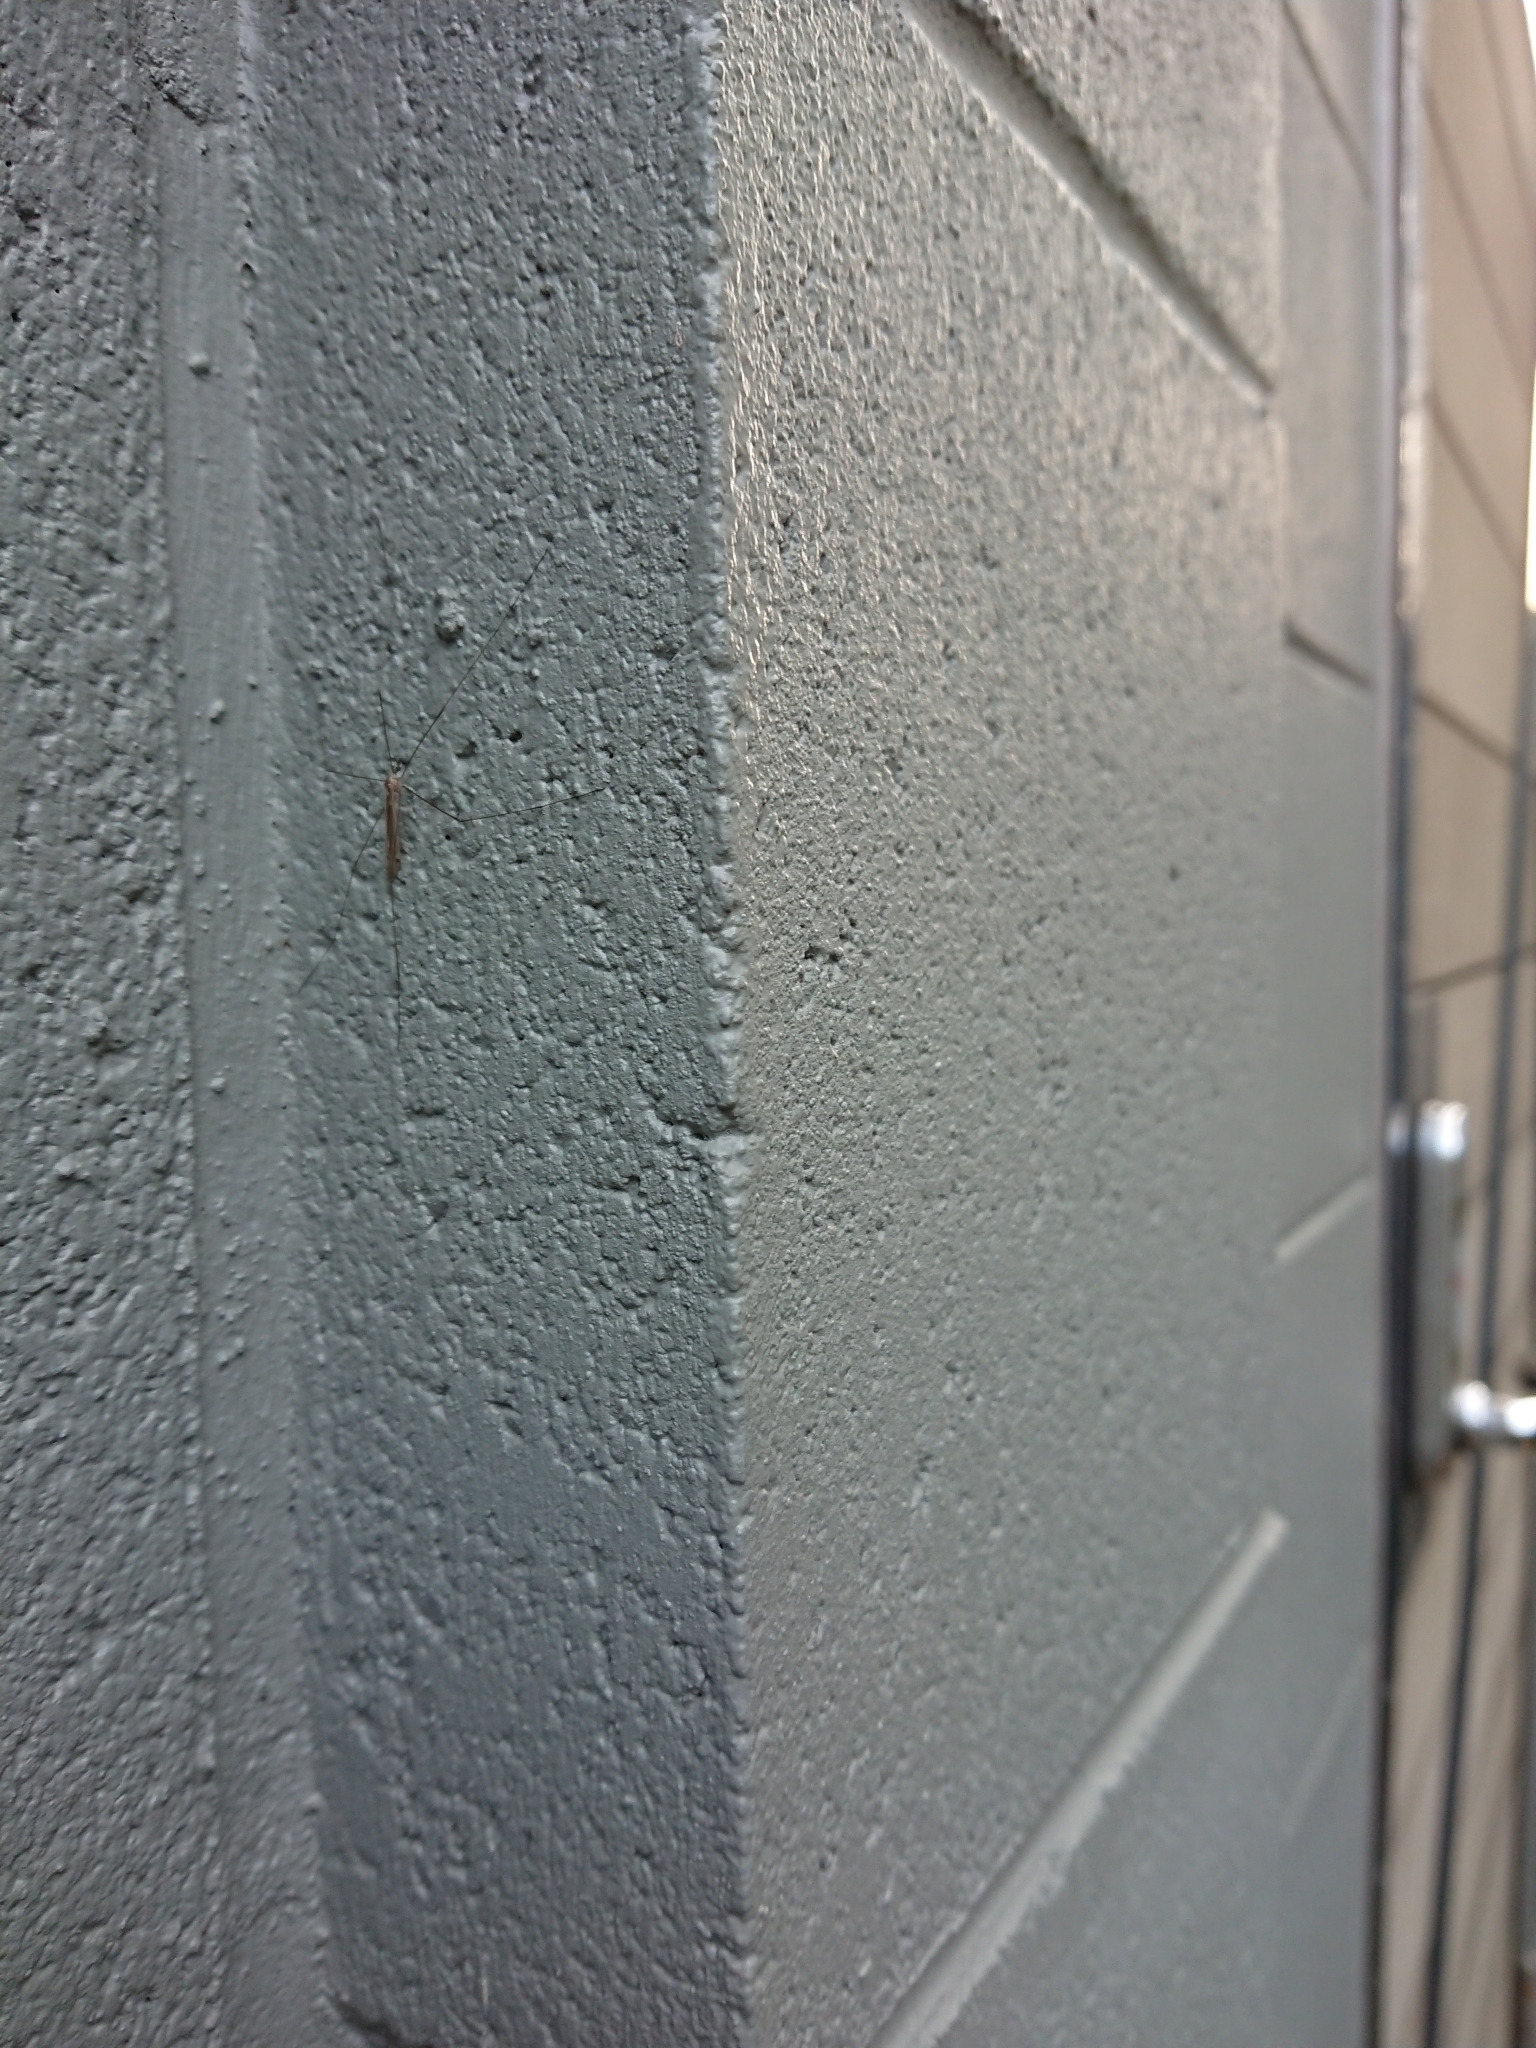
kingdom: Animalia
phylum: Arthropoda
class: Insecta
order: Diptera
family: Limoniidae
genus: Dicranomyia
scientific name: Dicranomyia aegrotans
